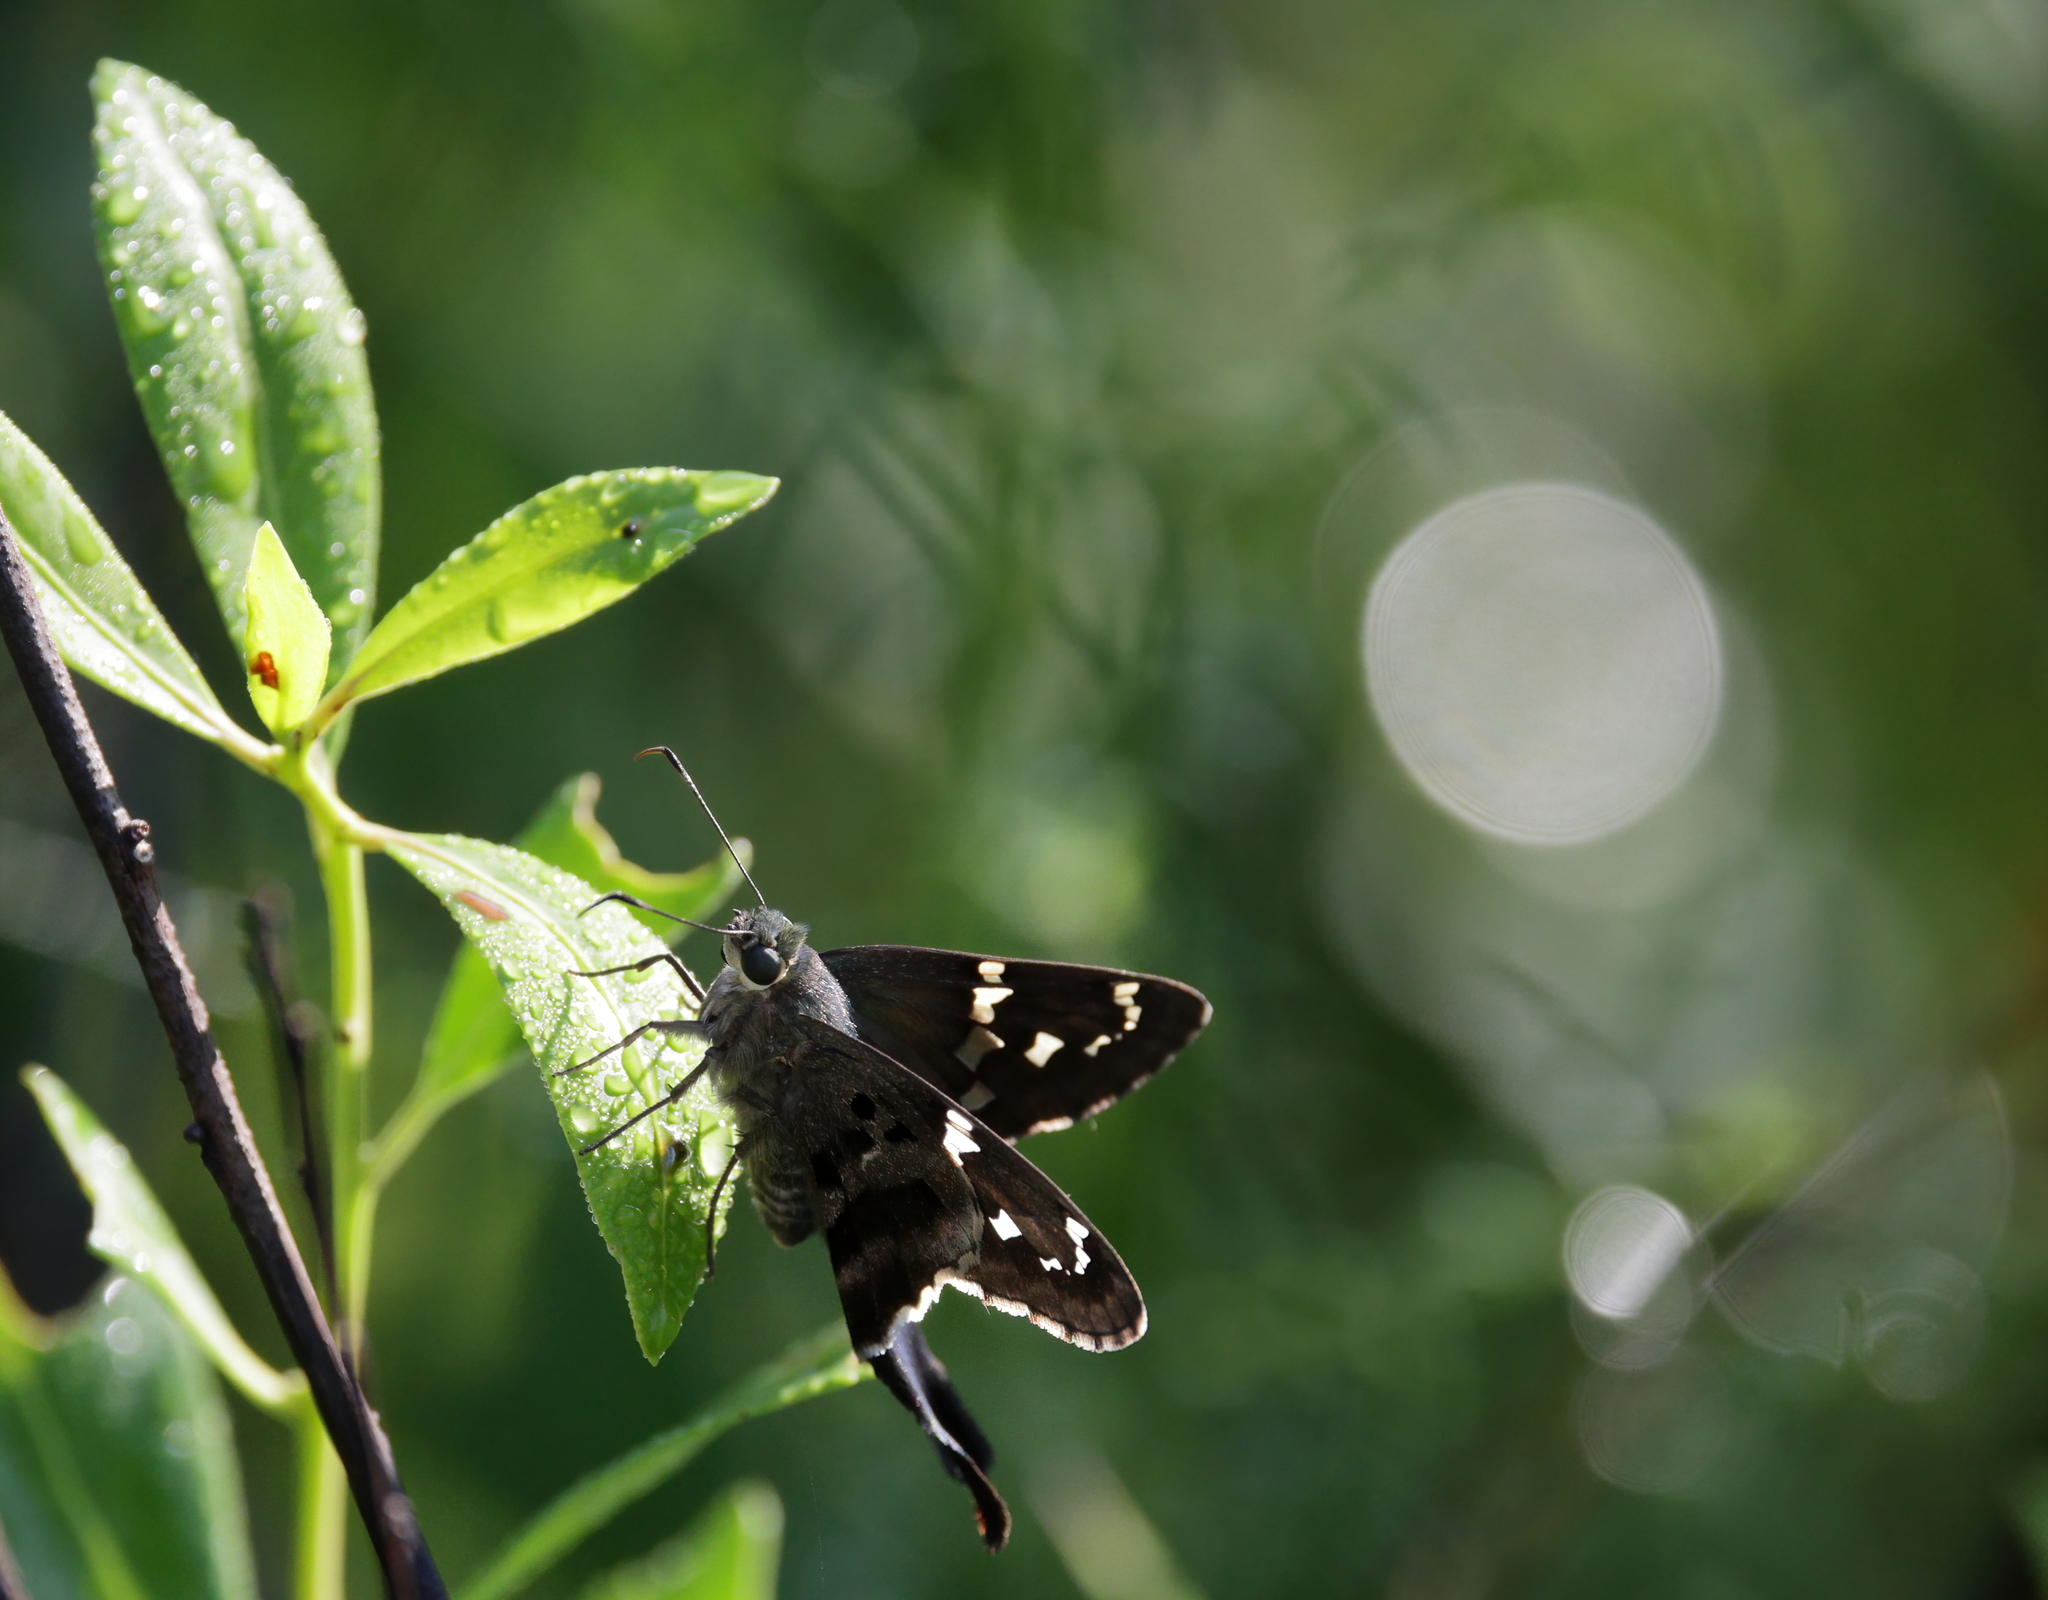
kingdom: Animalia
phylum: Arthropoda
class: Insecta
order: Lepidoptera
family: Hesperiidae
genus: Urbanus
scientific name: Urbanus proteus
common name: Long-tailed skipper
